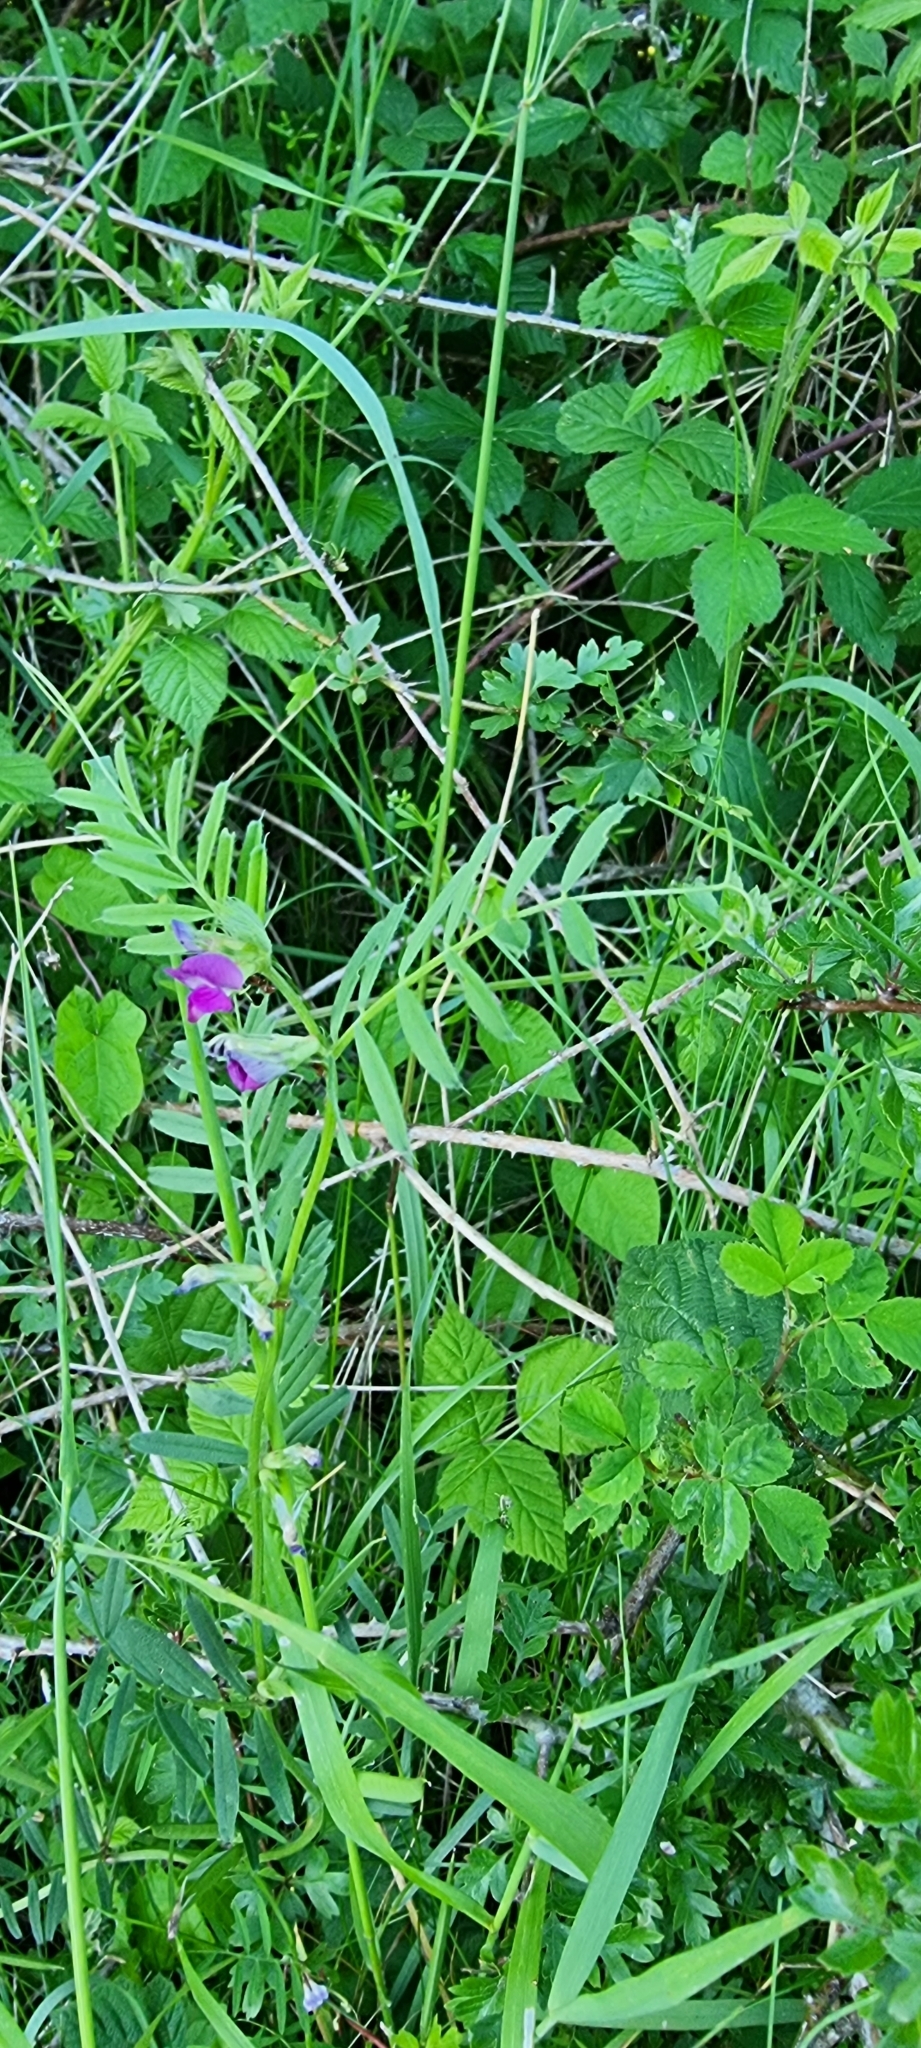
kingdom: Plantae
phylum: Tracheophyta
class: Magnoliopsida
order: Fabales
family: Fabaceae
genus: Vicia
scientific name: Vicia sativa
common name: Garden vetch
